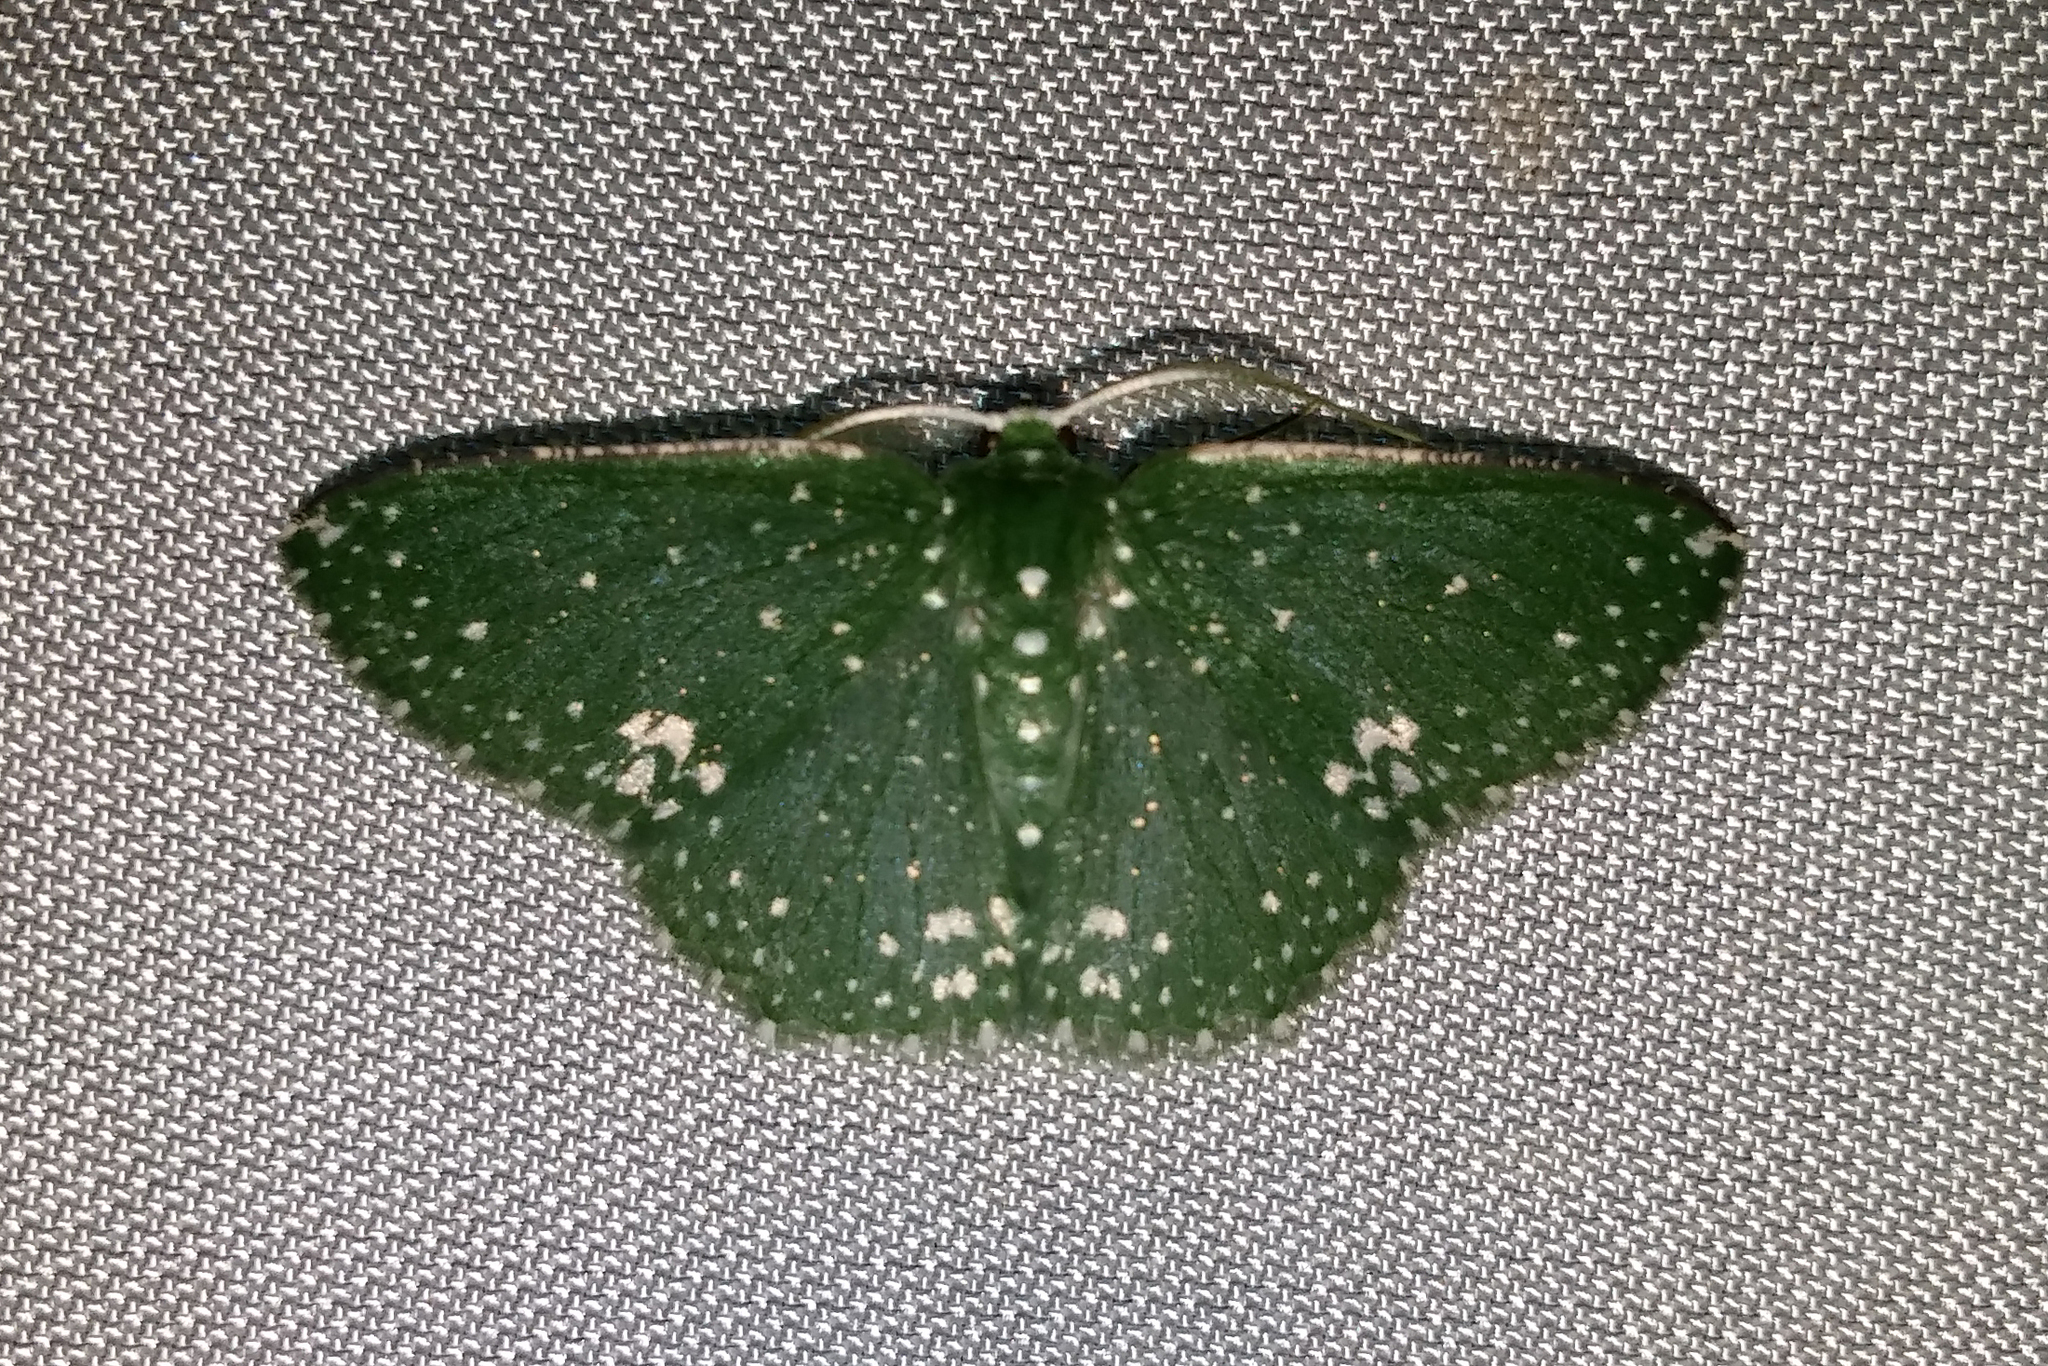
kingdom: Animalia
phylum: Arthropoda
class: Insecta
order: Lepidoptera
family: Geometridae
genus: Prasinocyma
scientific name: Prasinocyma
